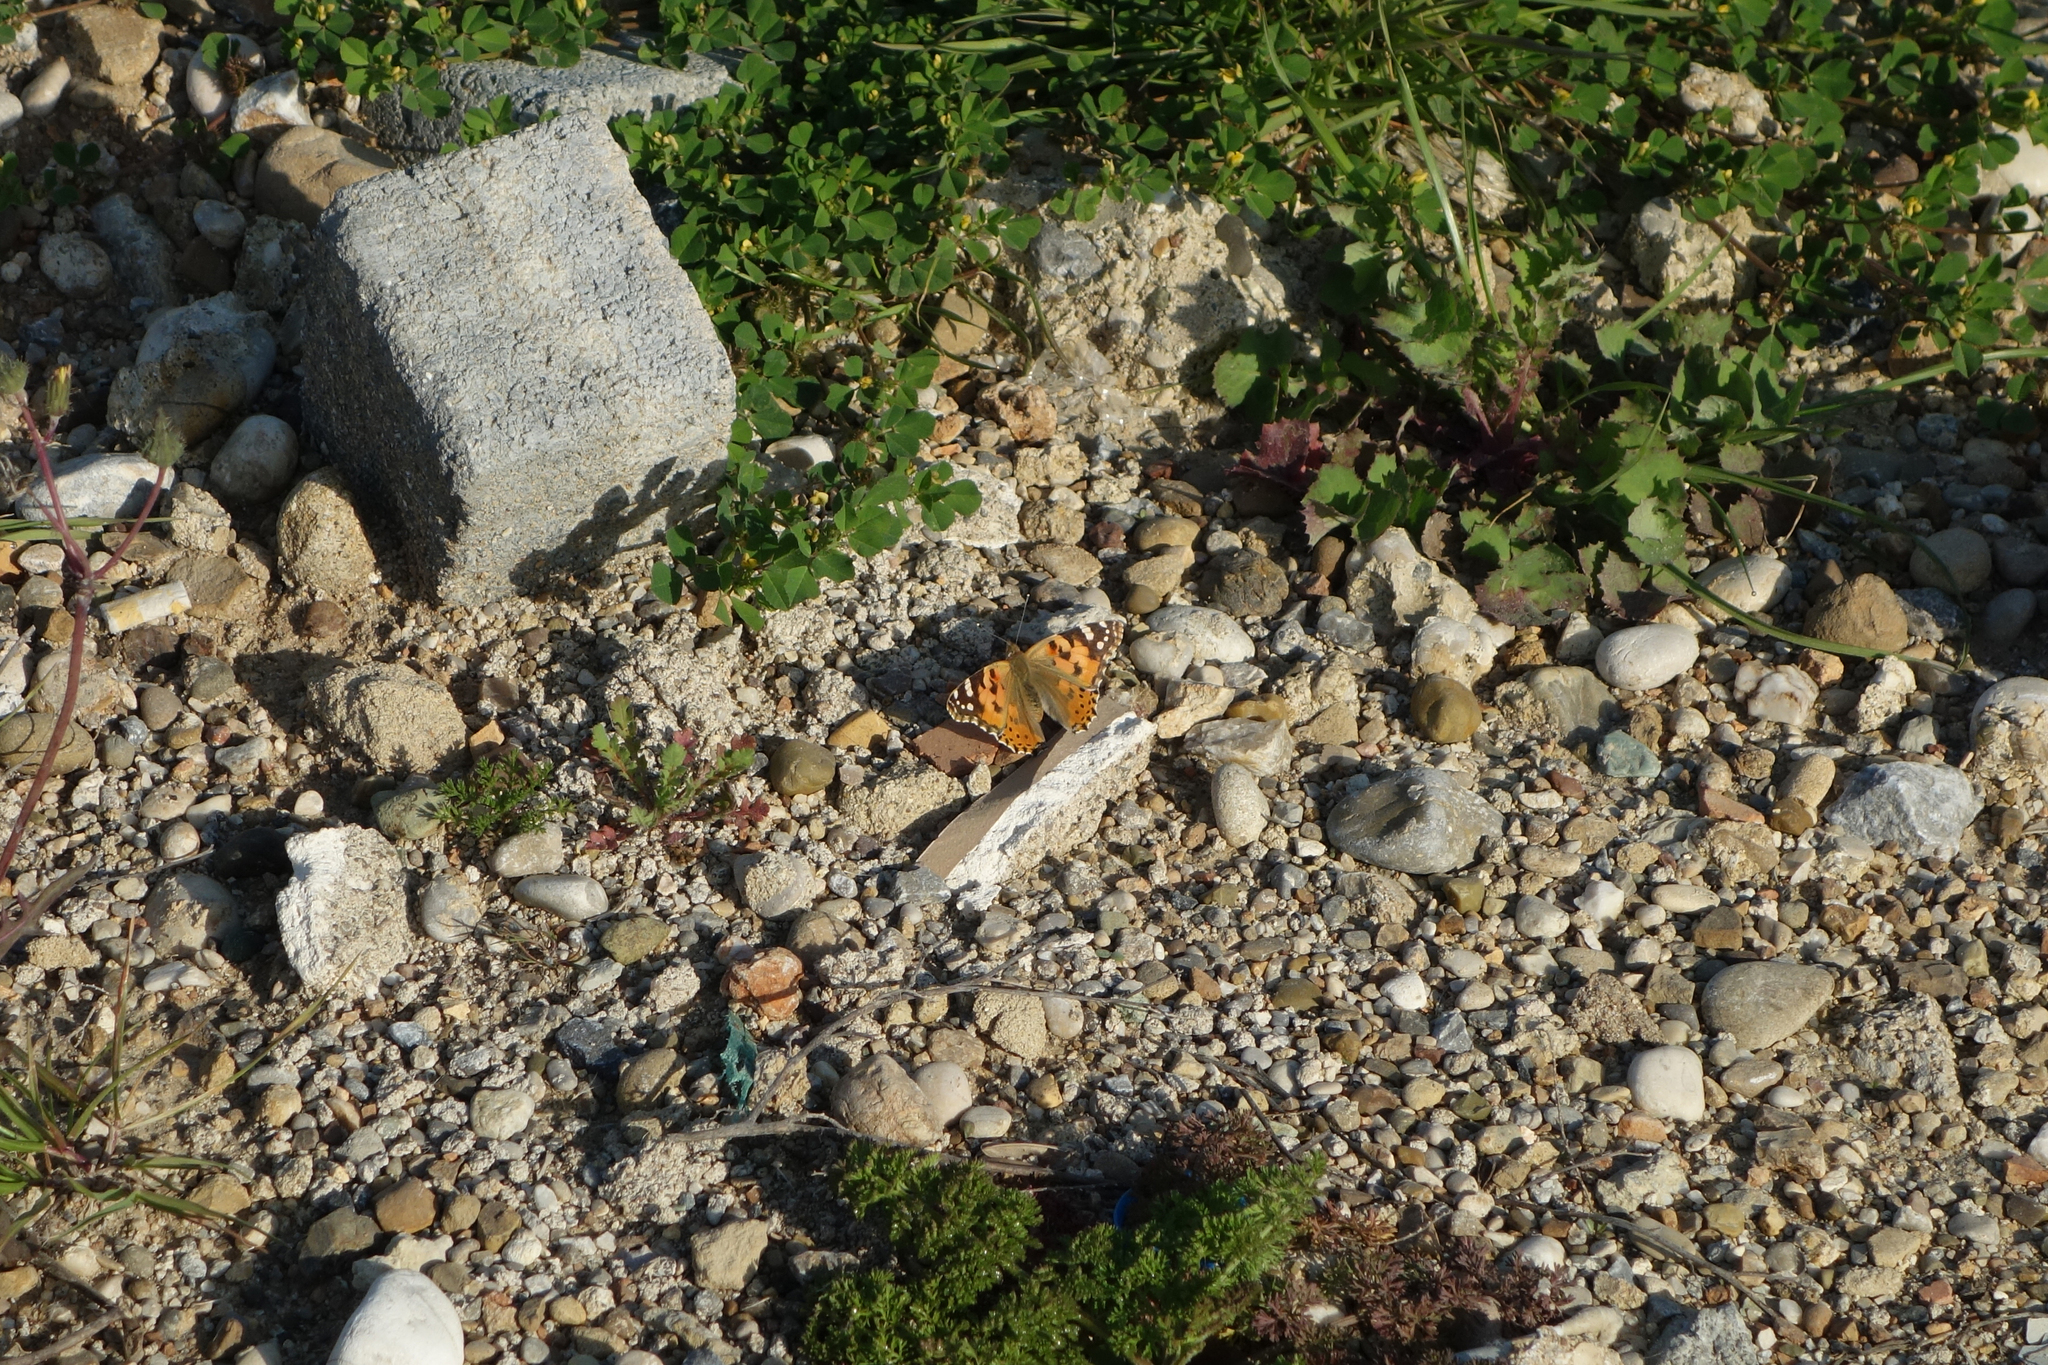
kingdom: Animalia
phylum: Arthropoda
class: Insecta
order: Lepidoptera
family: Nymphalidae
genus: Vanessa
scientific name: Vanessa cardui
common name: Painted lady
